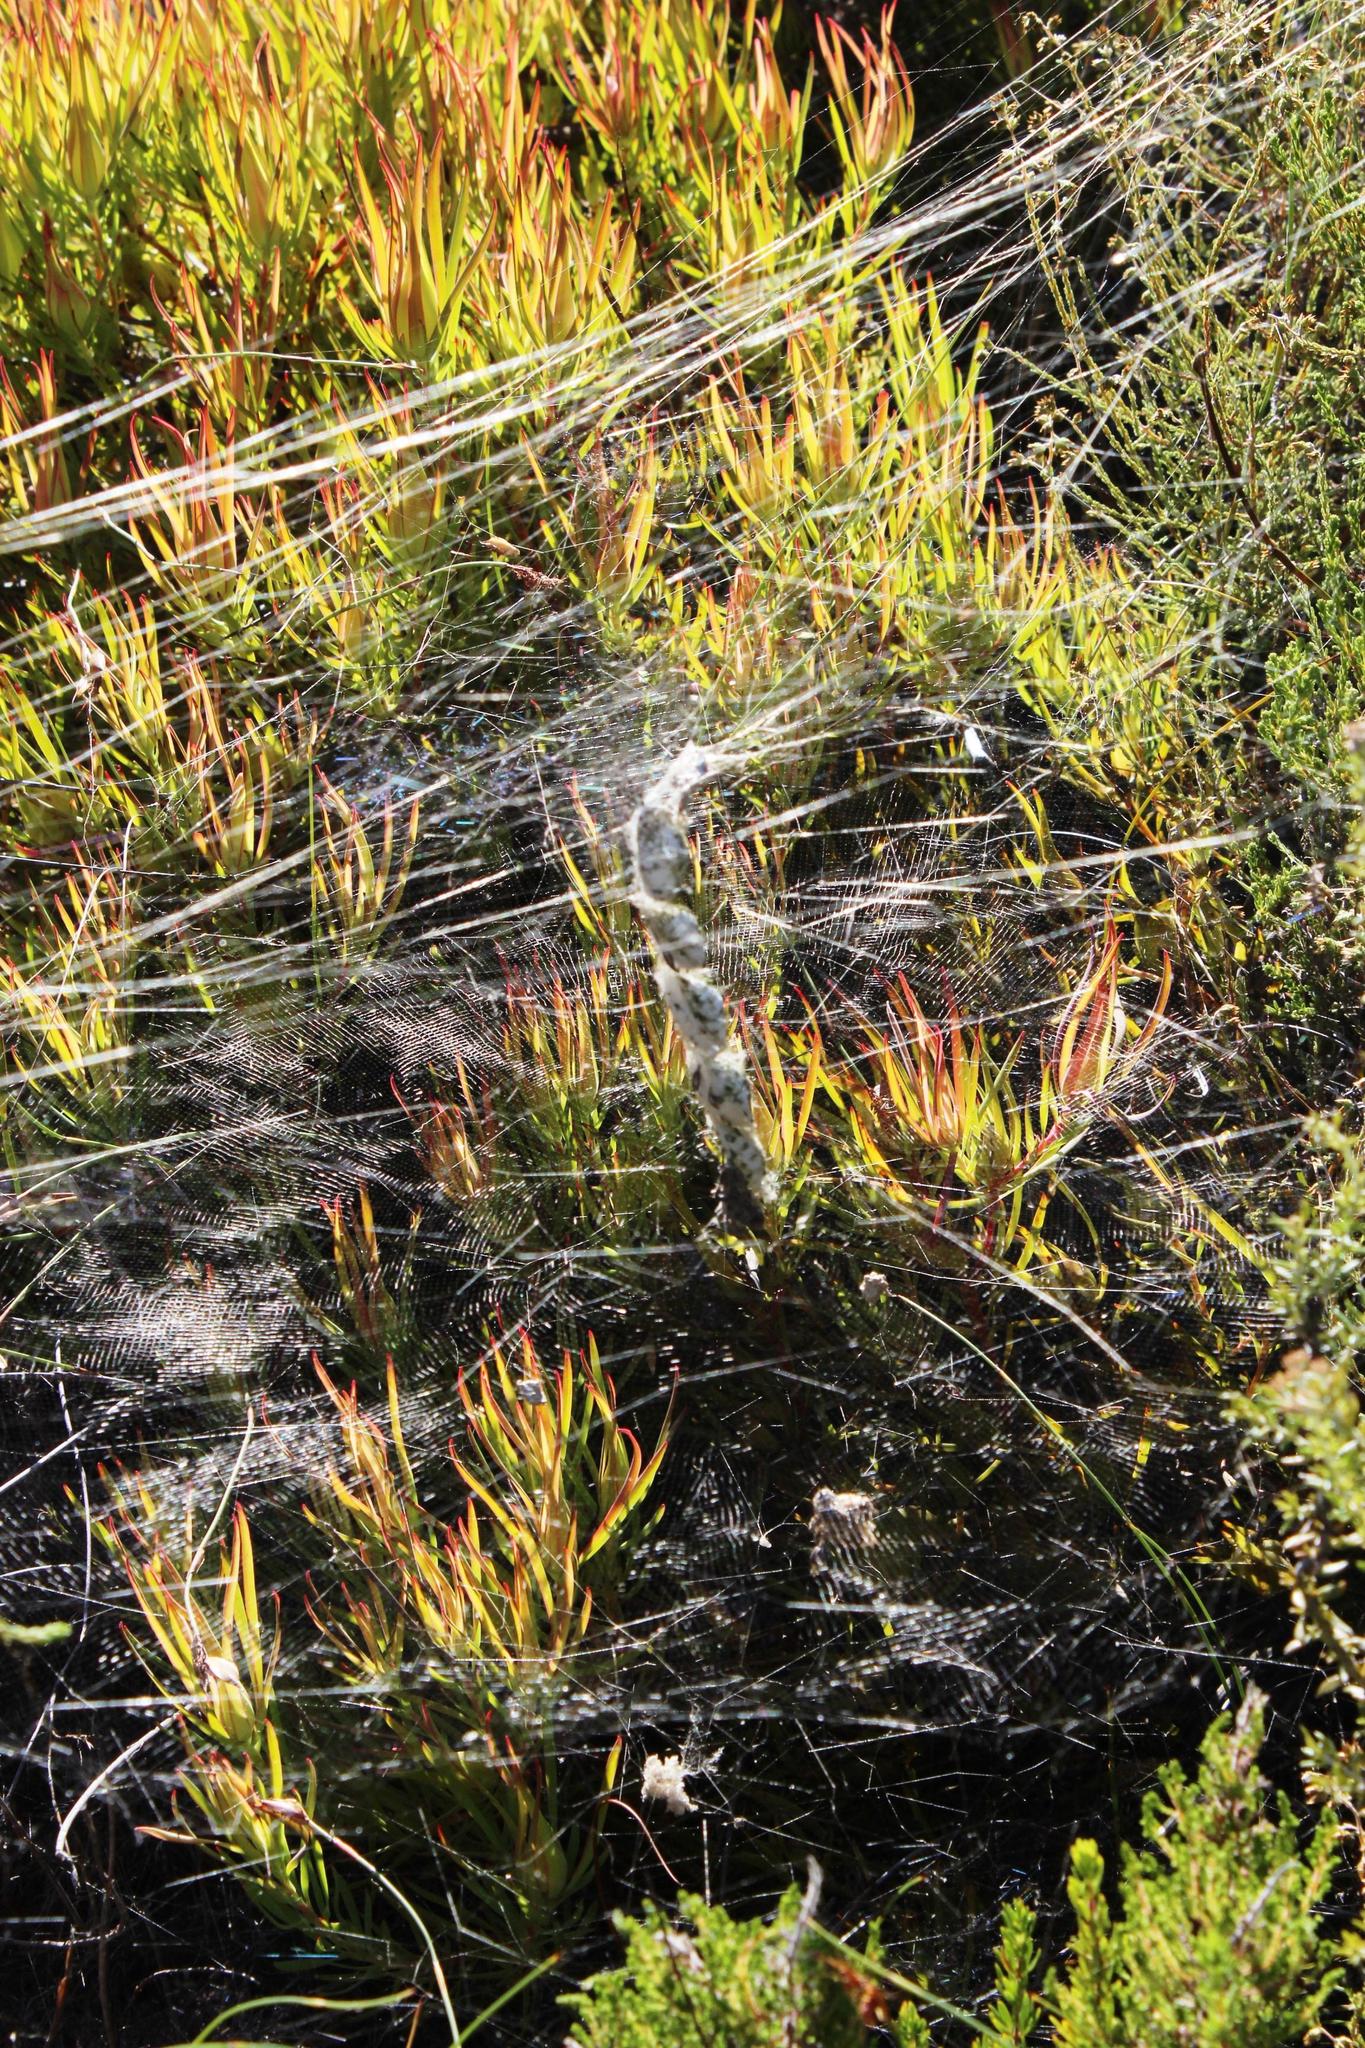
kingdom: Animalia
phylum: Arthropoda
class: Arachnida
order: Araneae
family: Araneidae
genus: Cyrtophora
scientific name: Cyrtophora citricola
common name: Orb weavers
